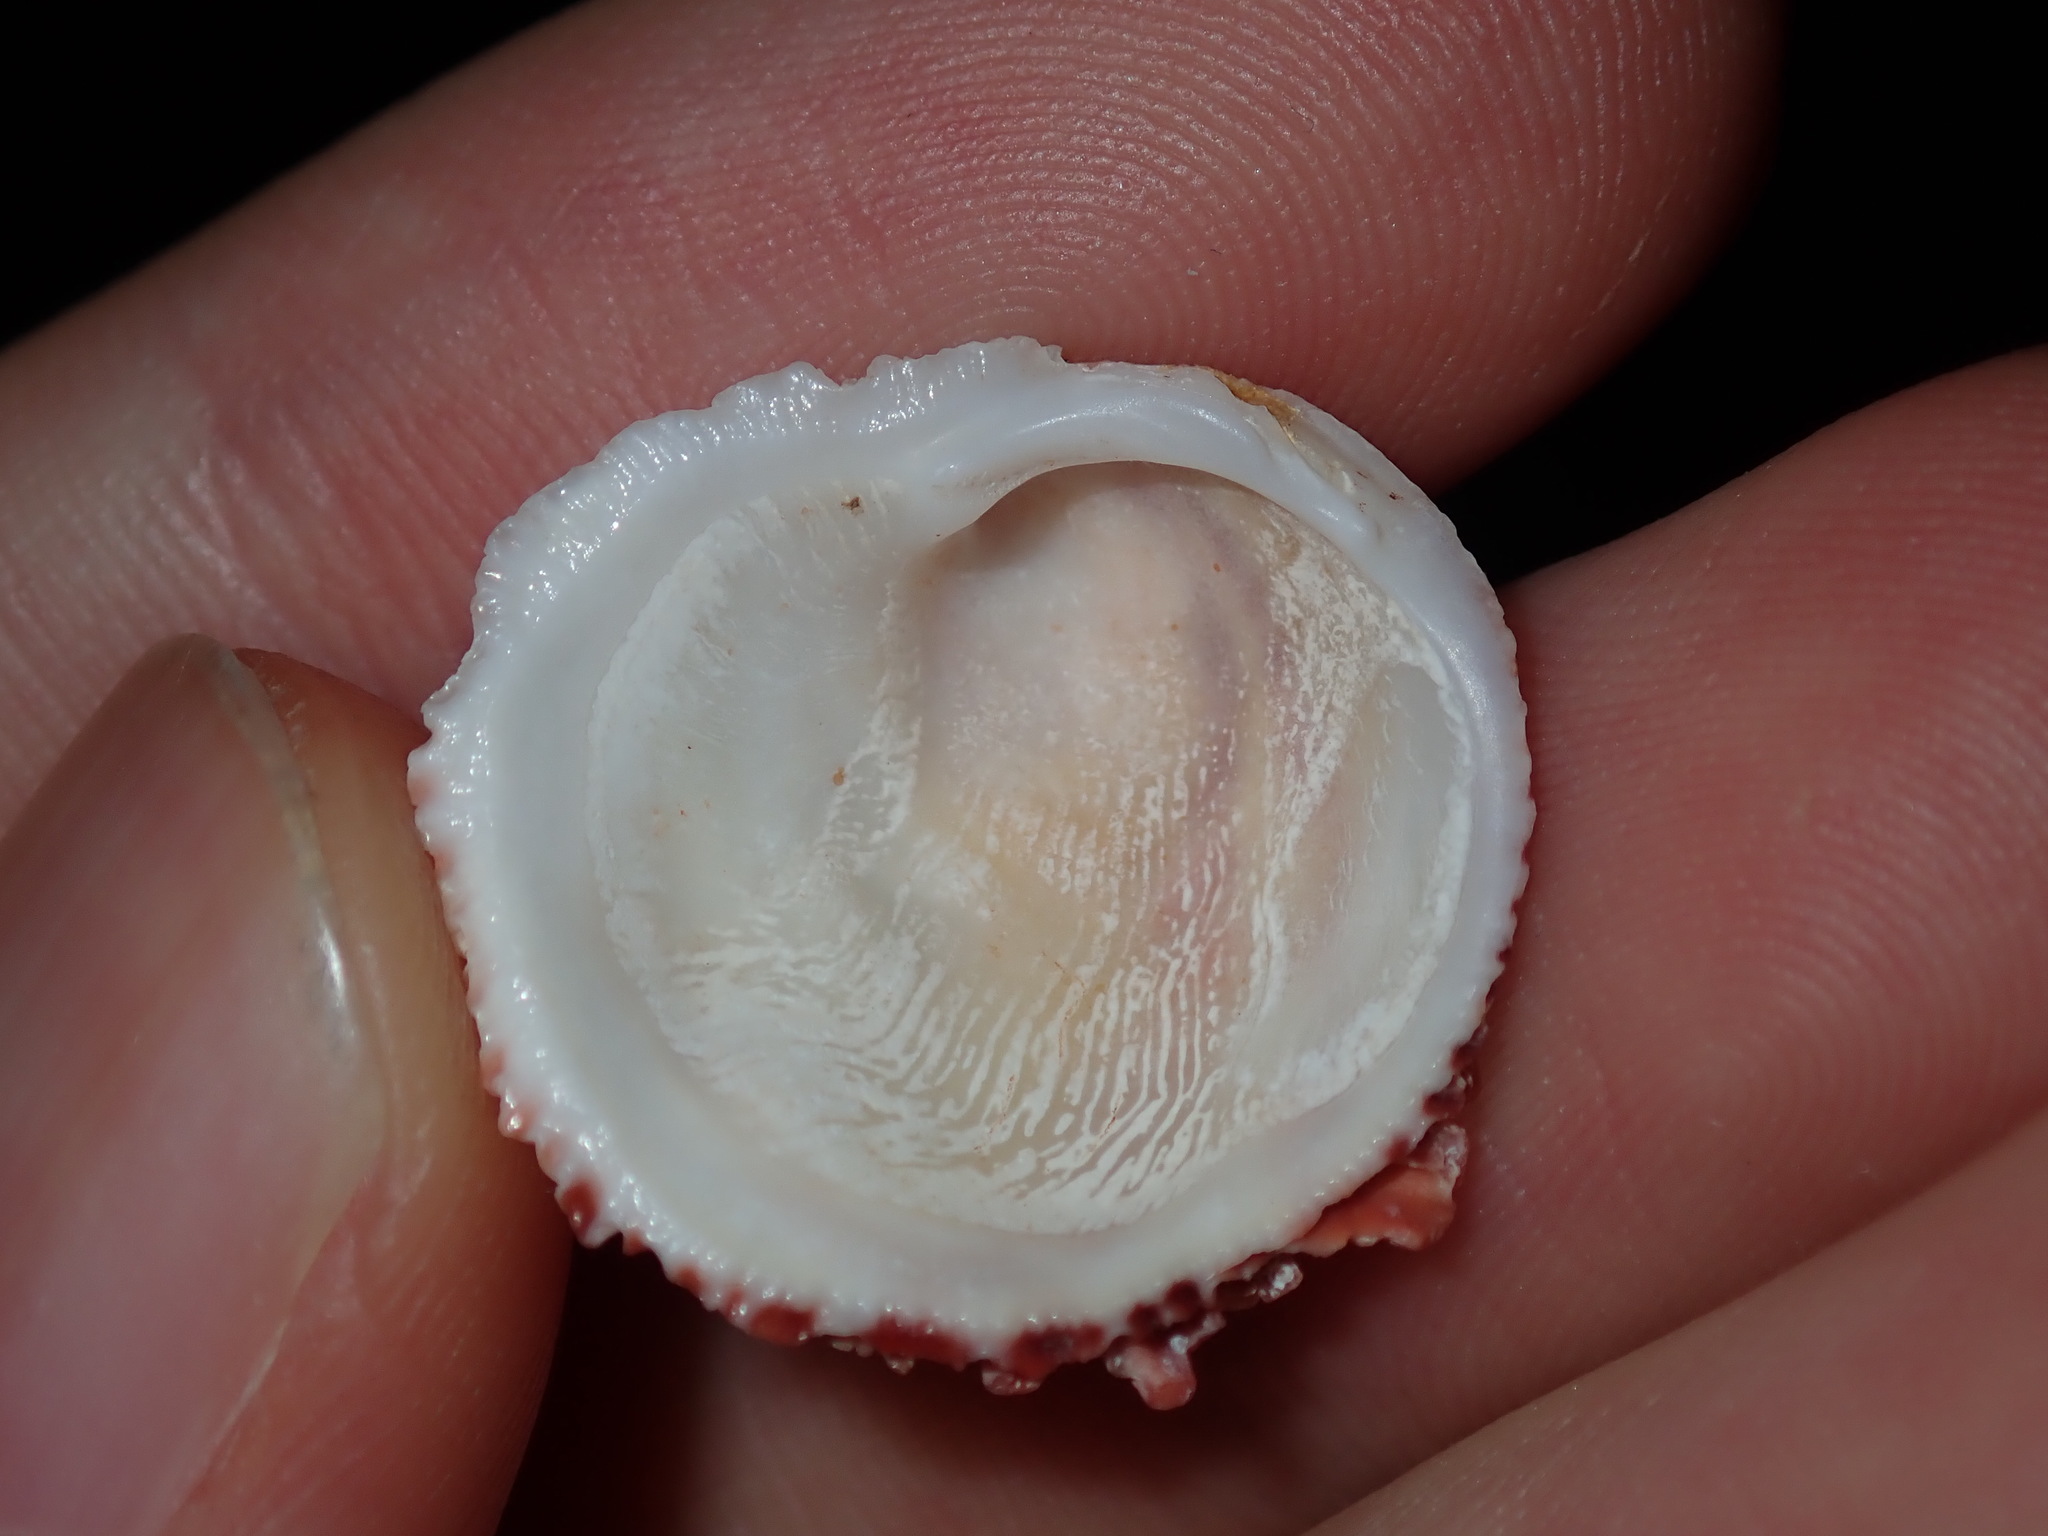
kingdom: Animalia
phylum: Mollusca
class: Bivalvia
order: Venerida
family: Chamidae
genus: Chama
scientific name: Chama asperella
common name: Mollusca
